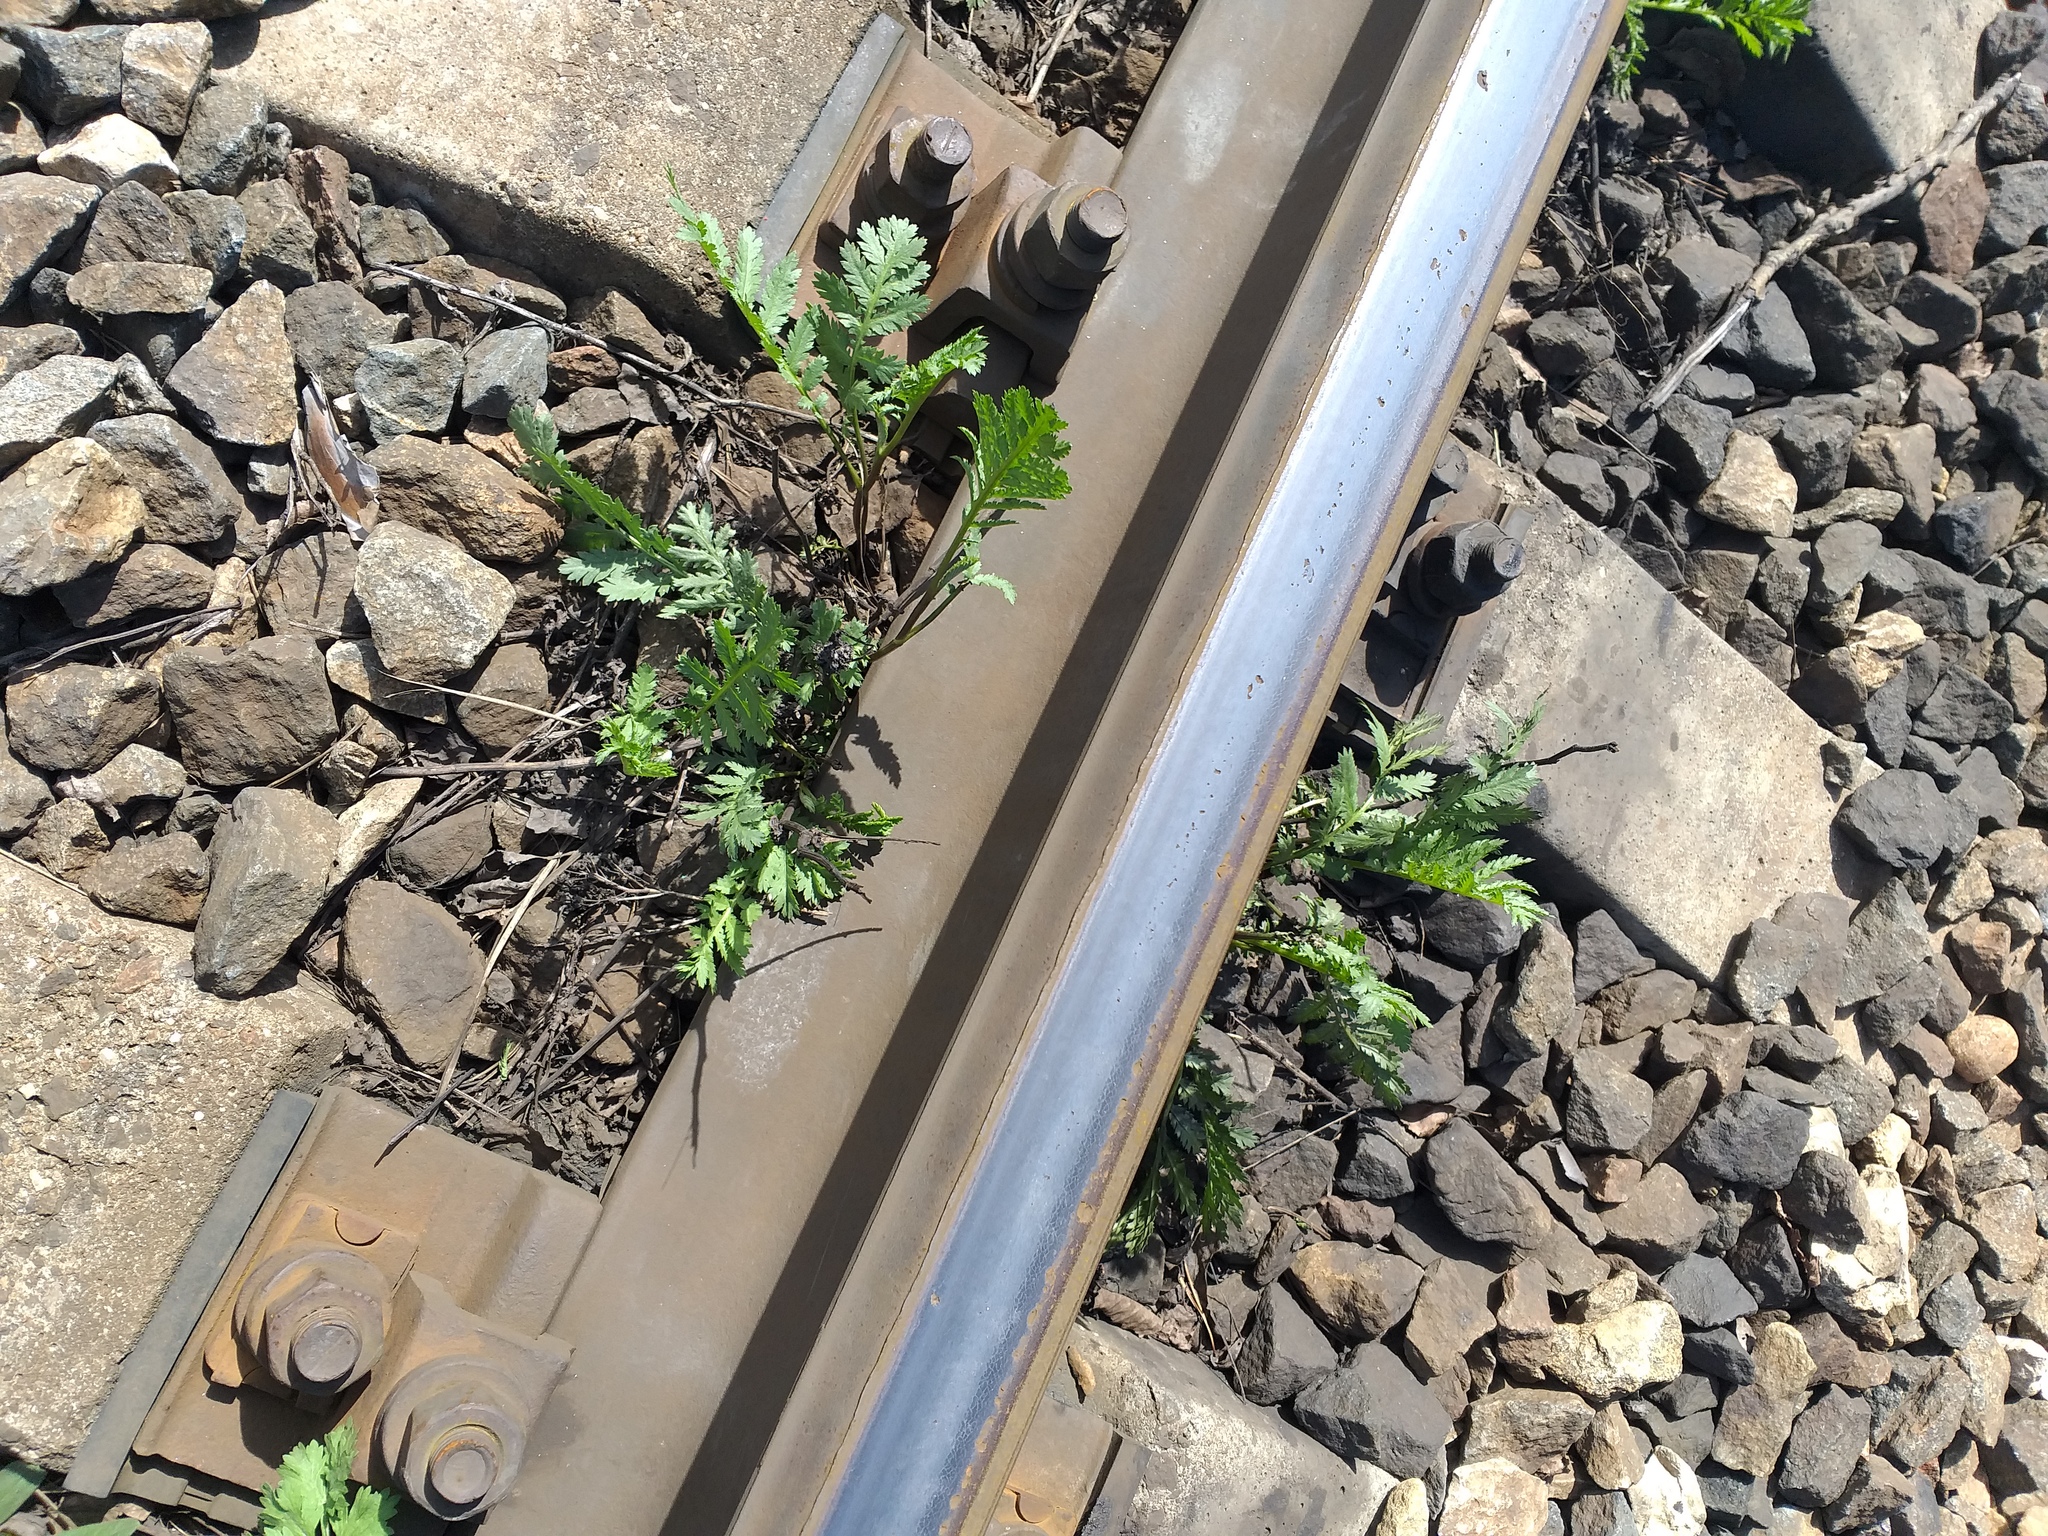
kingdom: Plantae
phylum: Tracheophyta
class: Magnoliopsida
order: Asterales
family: Asteraceae
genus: Tanacetum
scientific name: Tanacetum vulgare
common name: Common tansy
